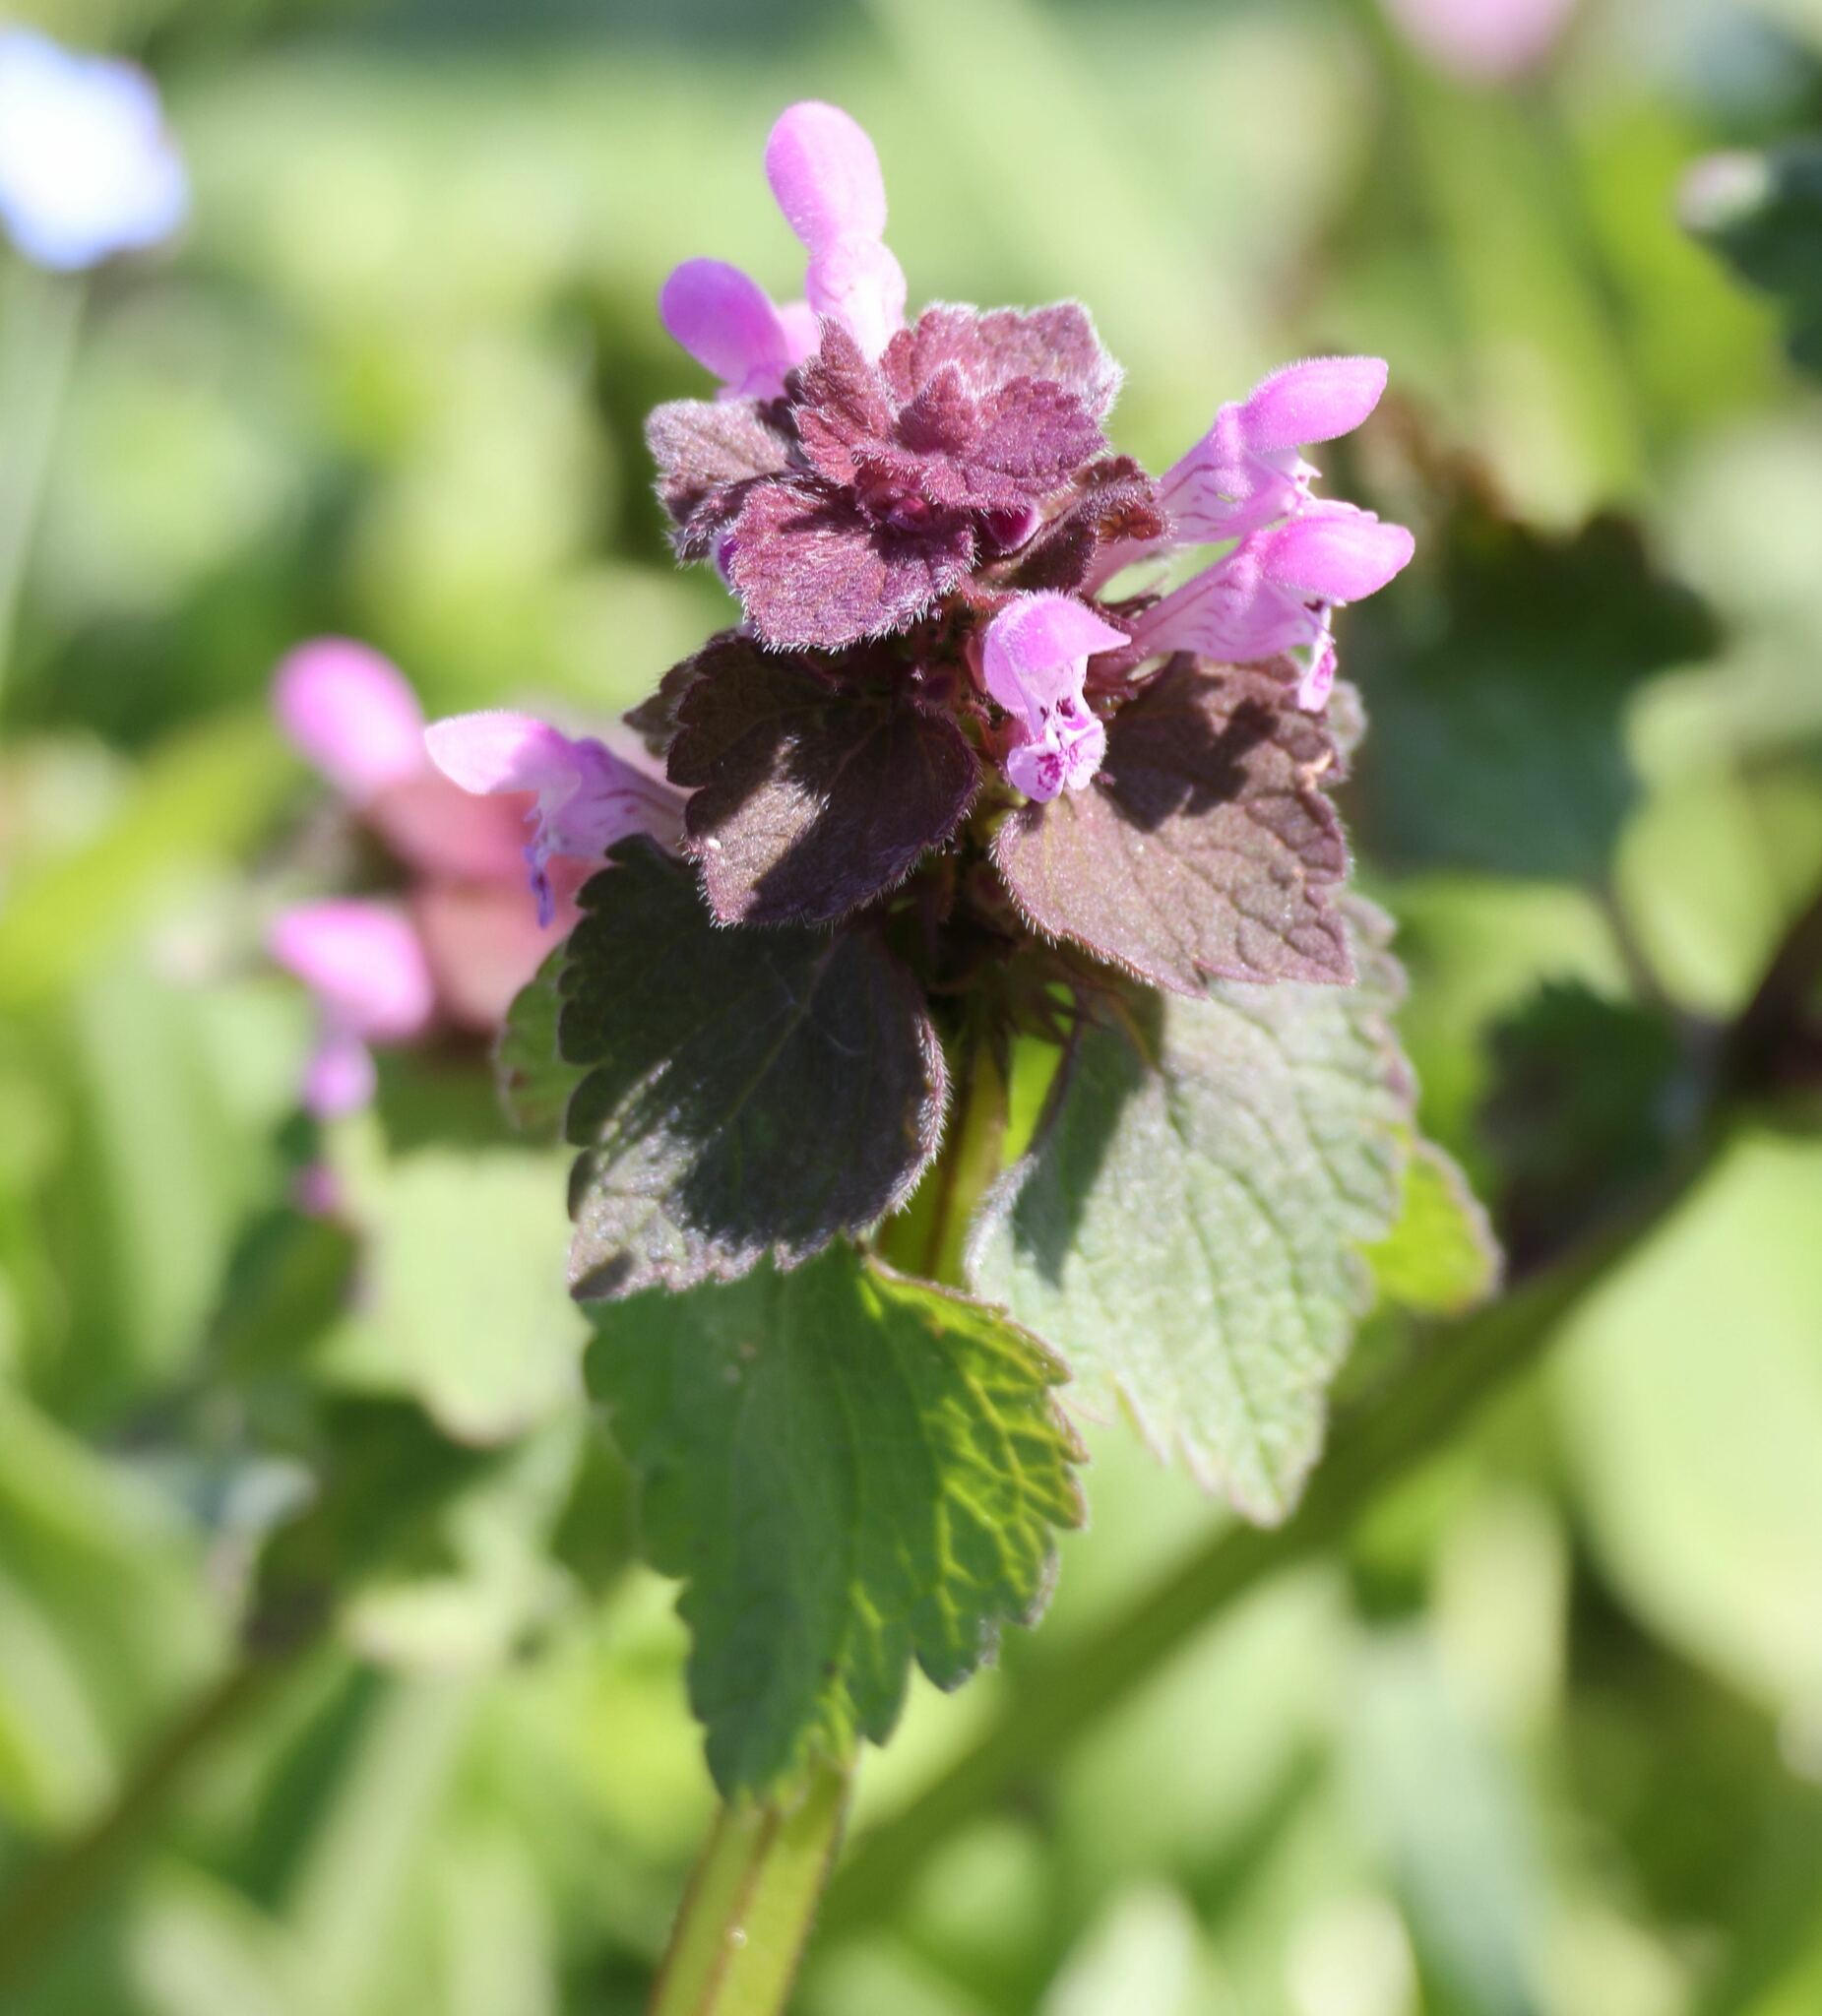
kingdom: Plantae
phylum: Tracheophyta
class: Magnoliopsida
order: Lamiales
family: Lamiaceae
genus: Lamium
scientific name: Lamium purpureum
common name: Red dead-nettle
